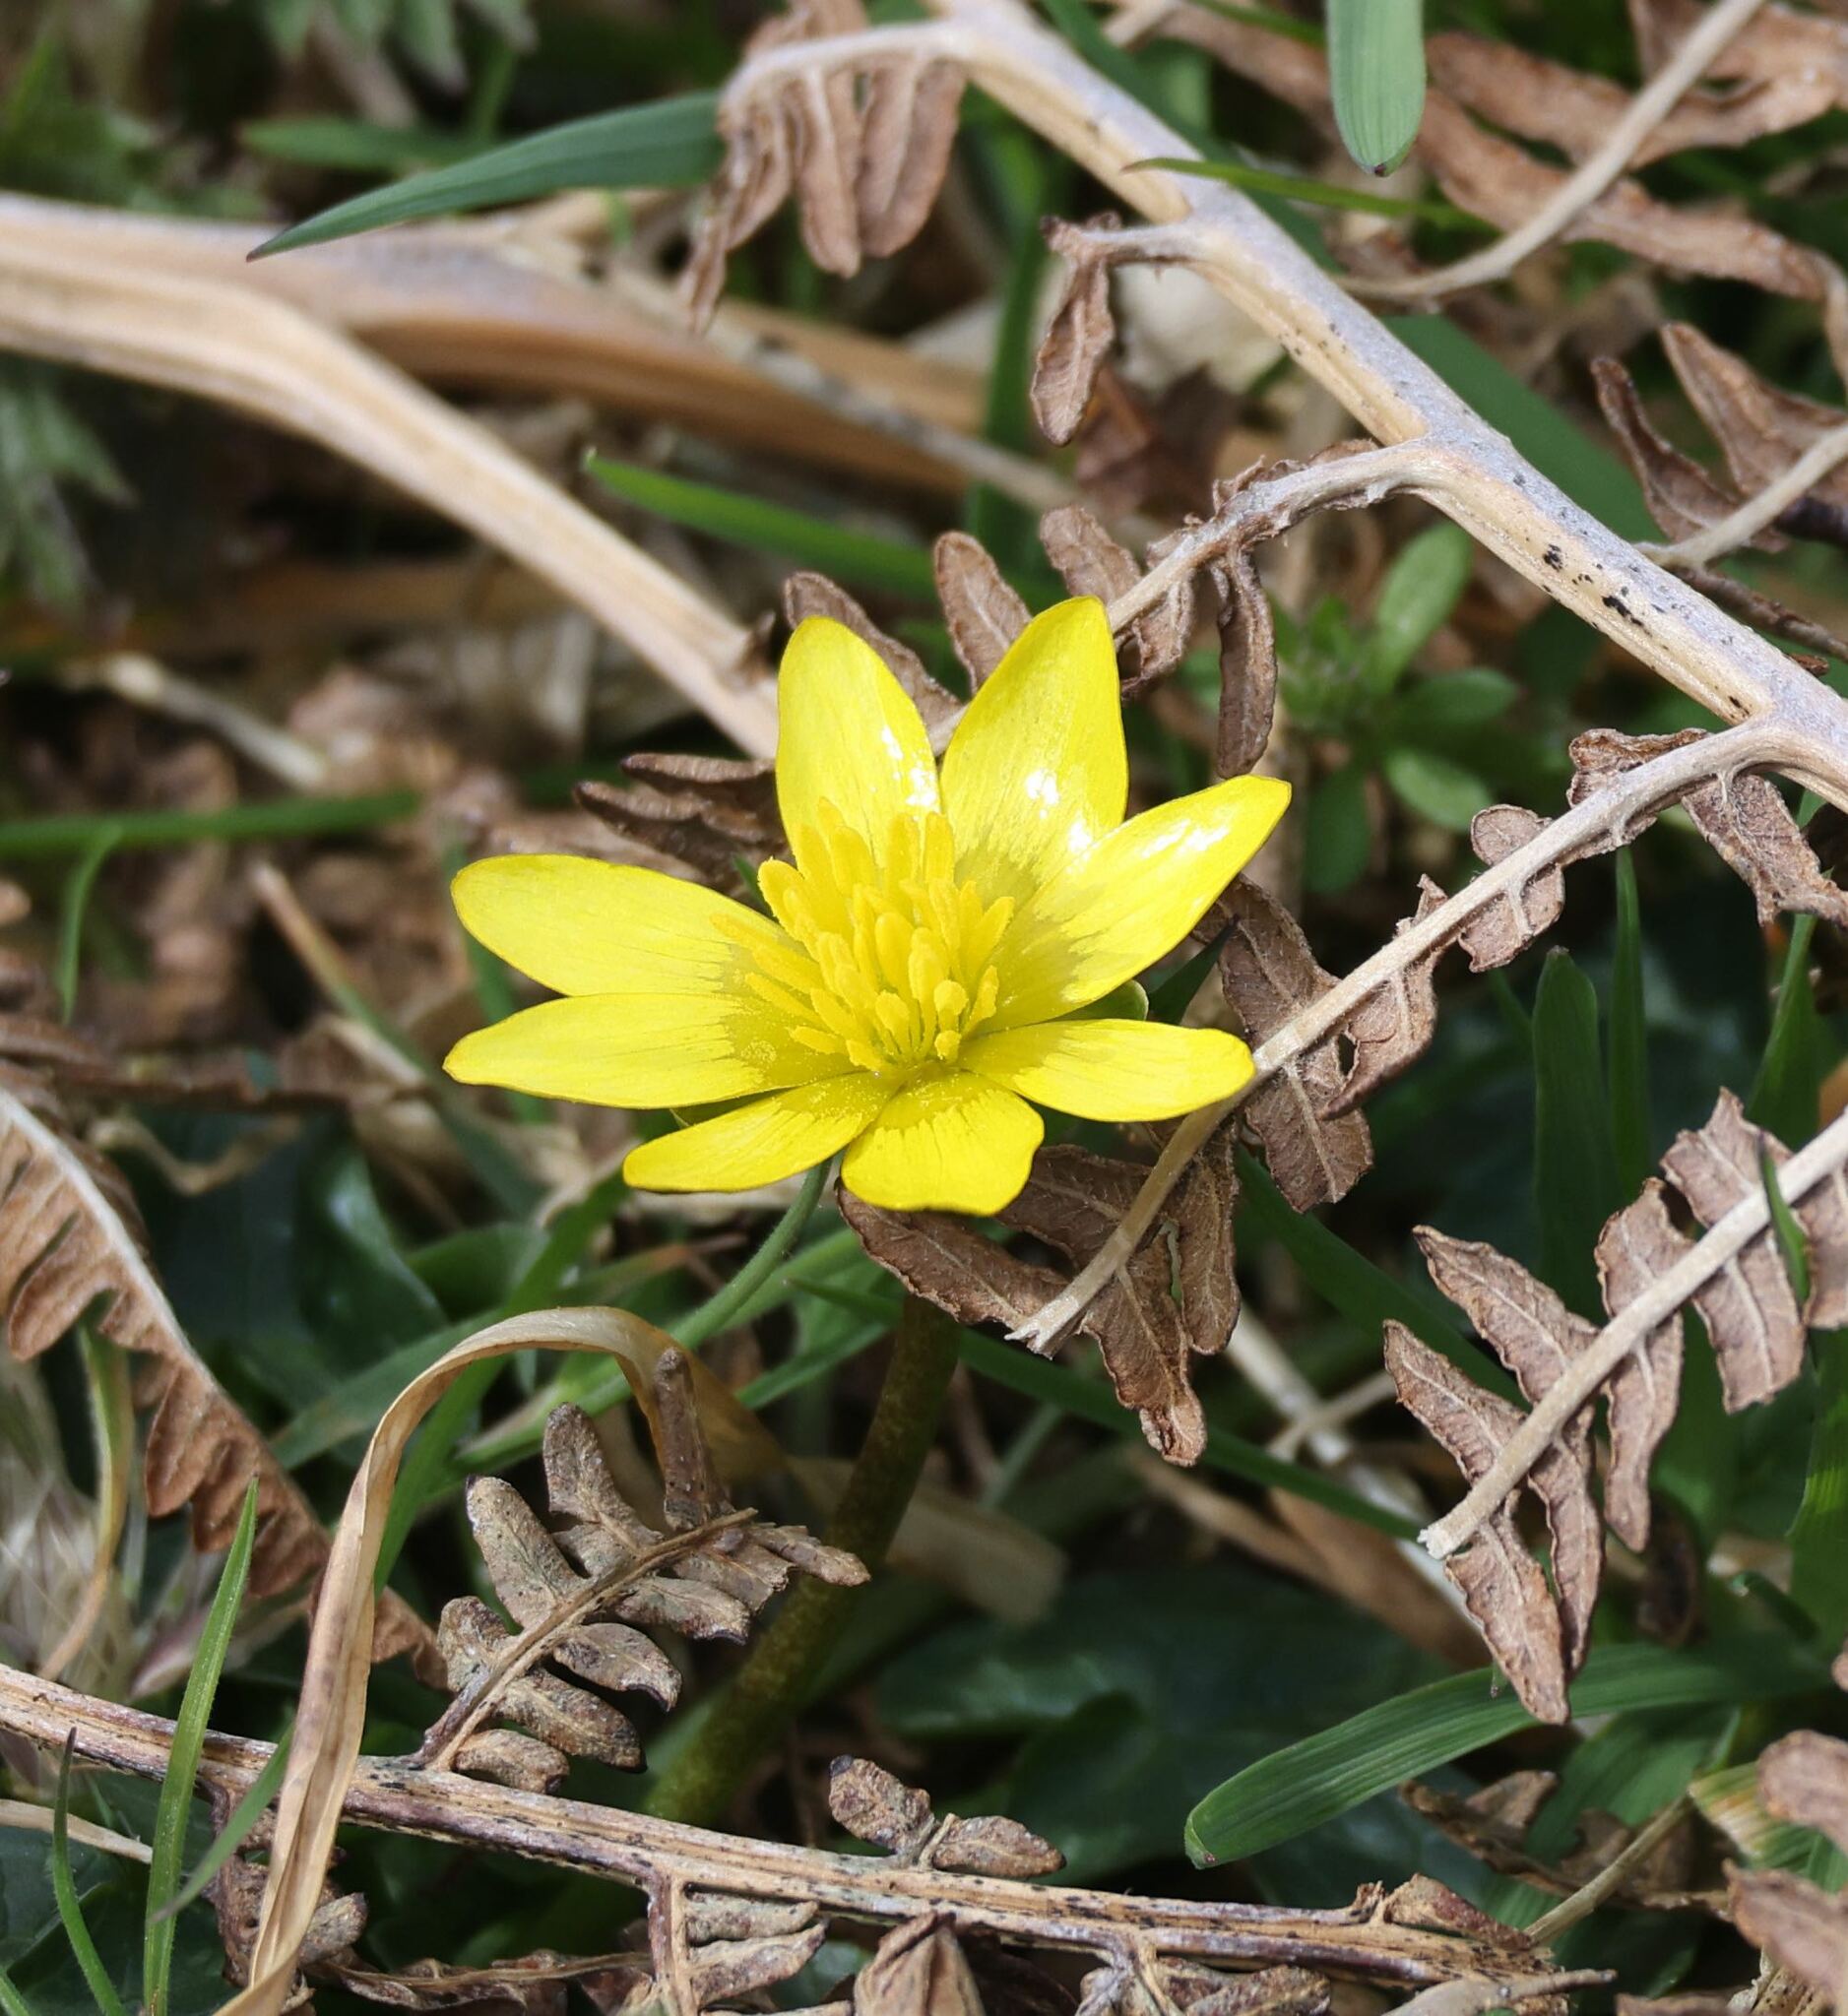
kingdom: Plantae
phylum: Tracheophyta
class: Magnoliopsida
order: Ranunculales
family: Ranunculaceae
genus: Ficaria
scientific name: Ficaria verna
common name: Lesser celandine
